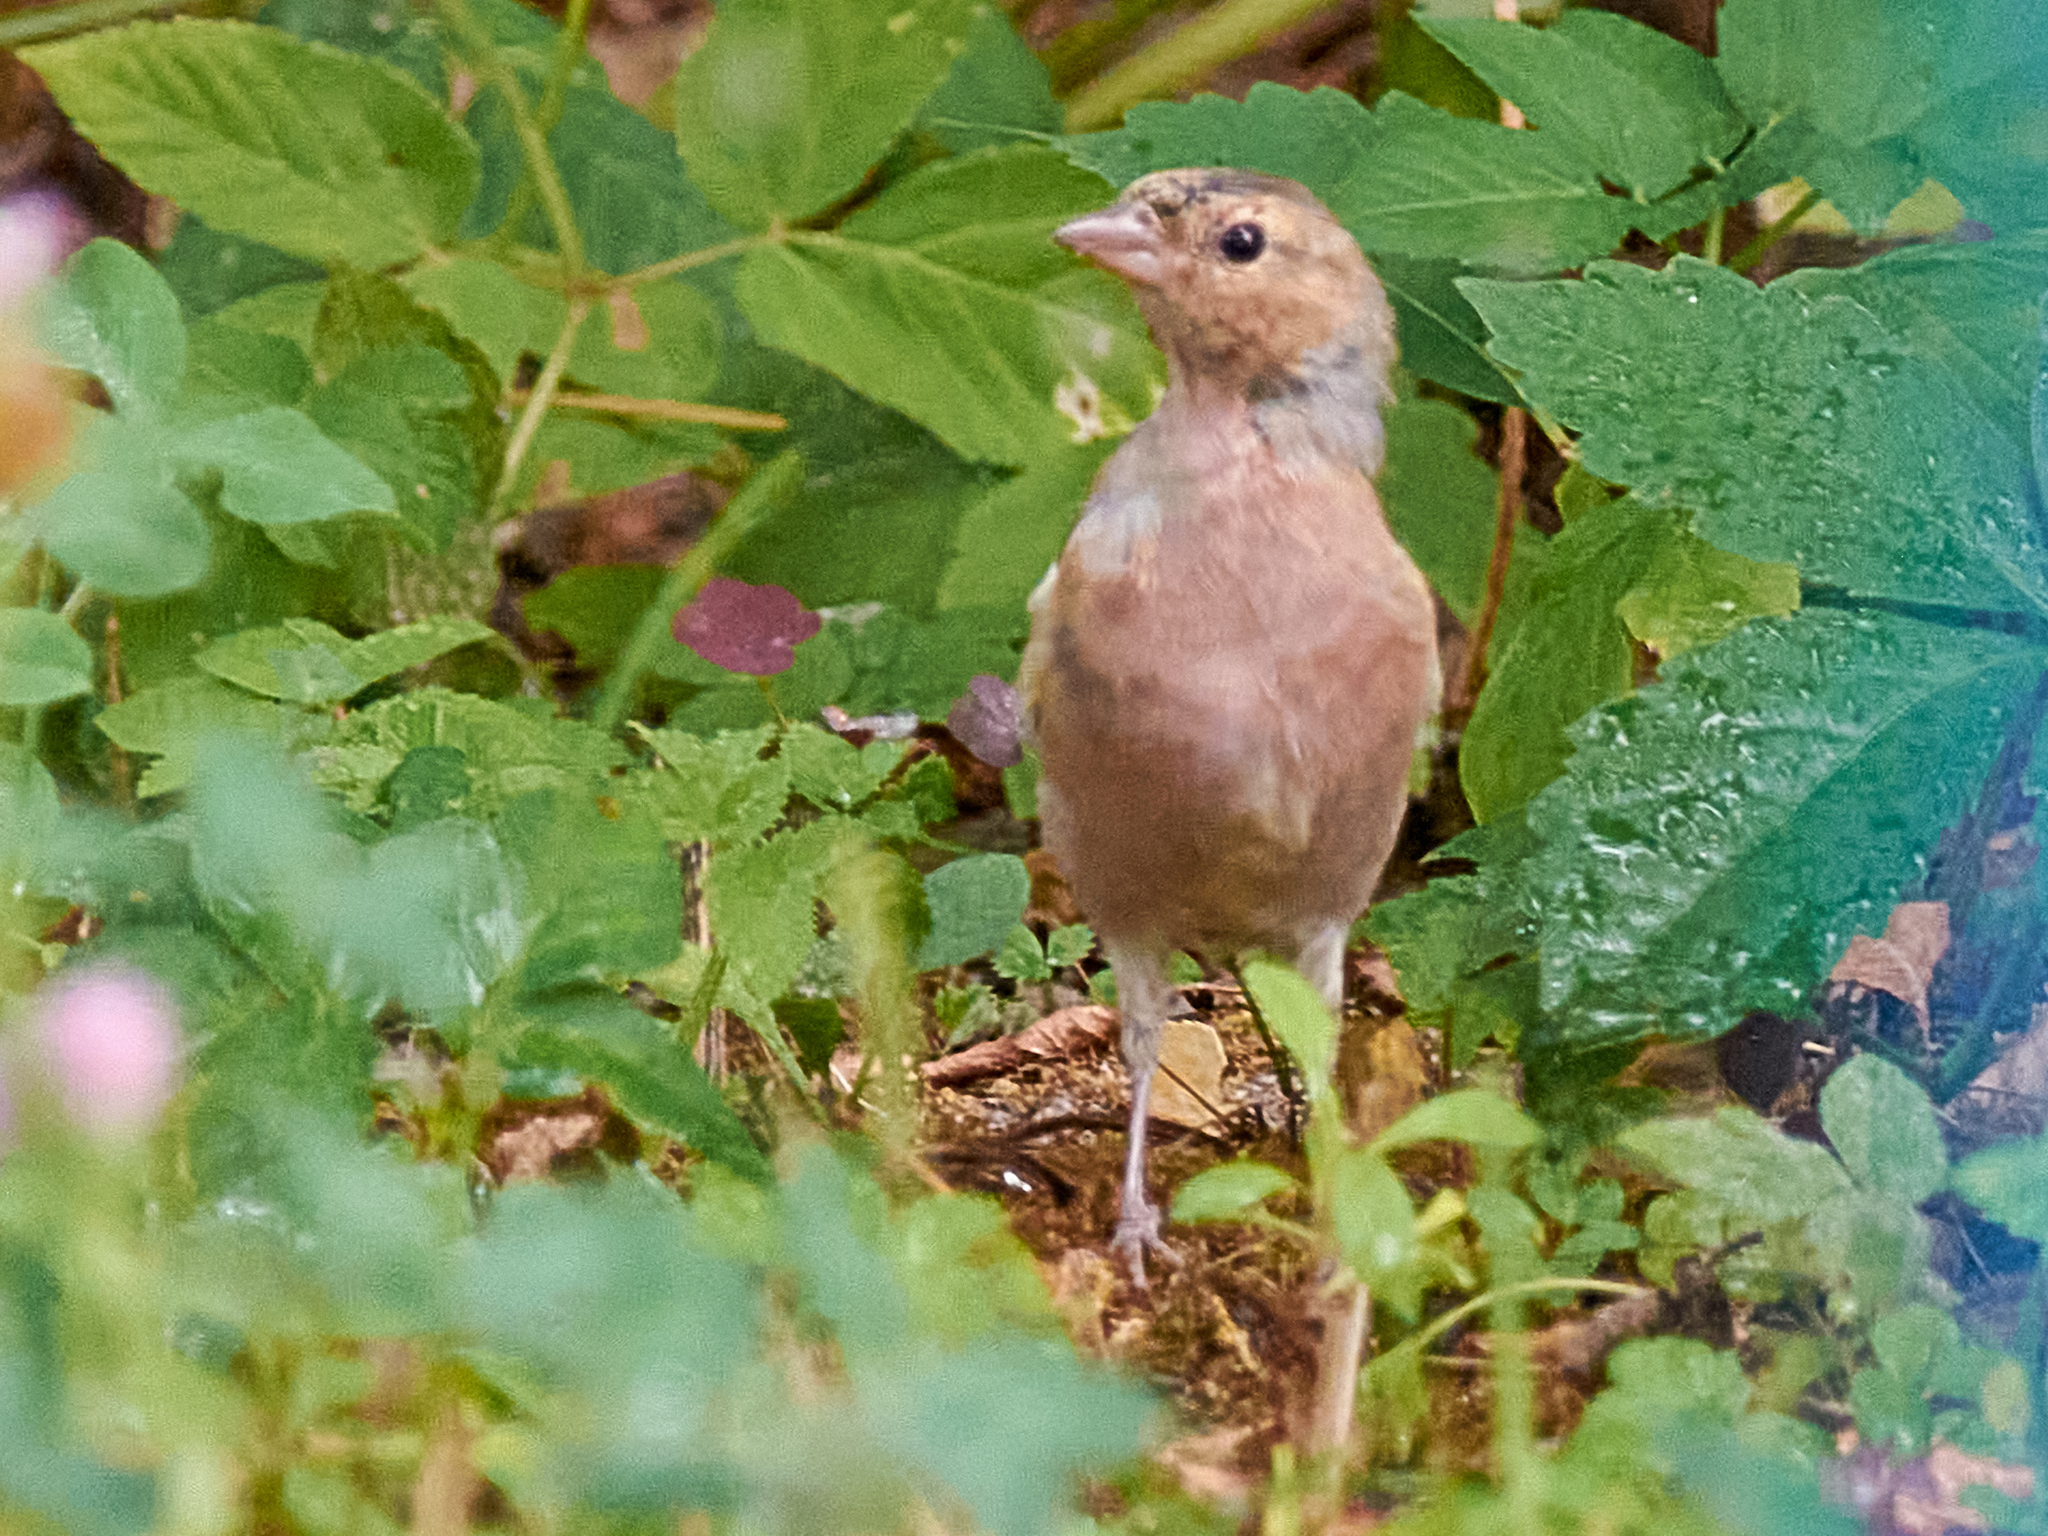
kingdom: Animalia
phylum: Chordata
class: Aves
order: Passeriformes
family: Fringillidae
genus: Fringilla
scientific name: Fringilla coelebs
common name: Common chaffinch
